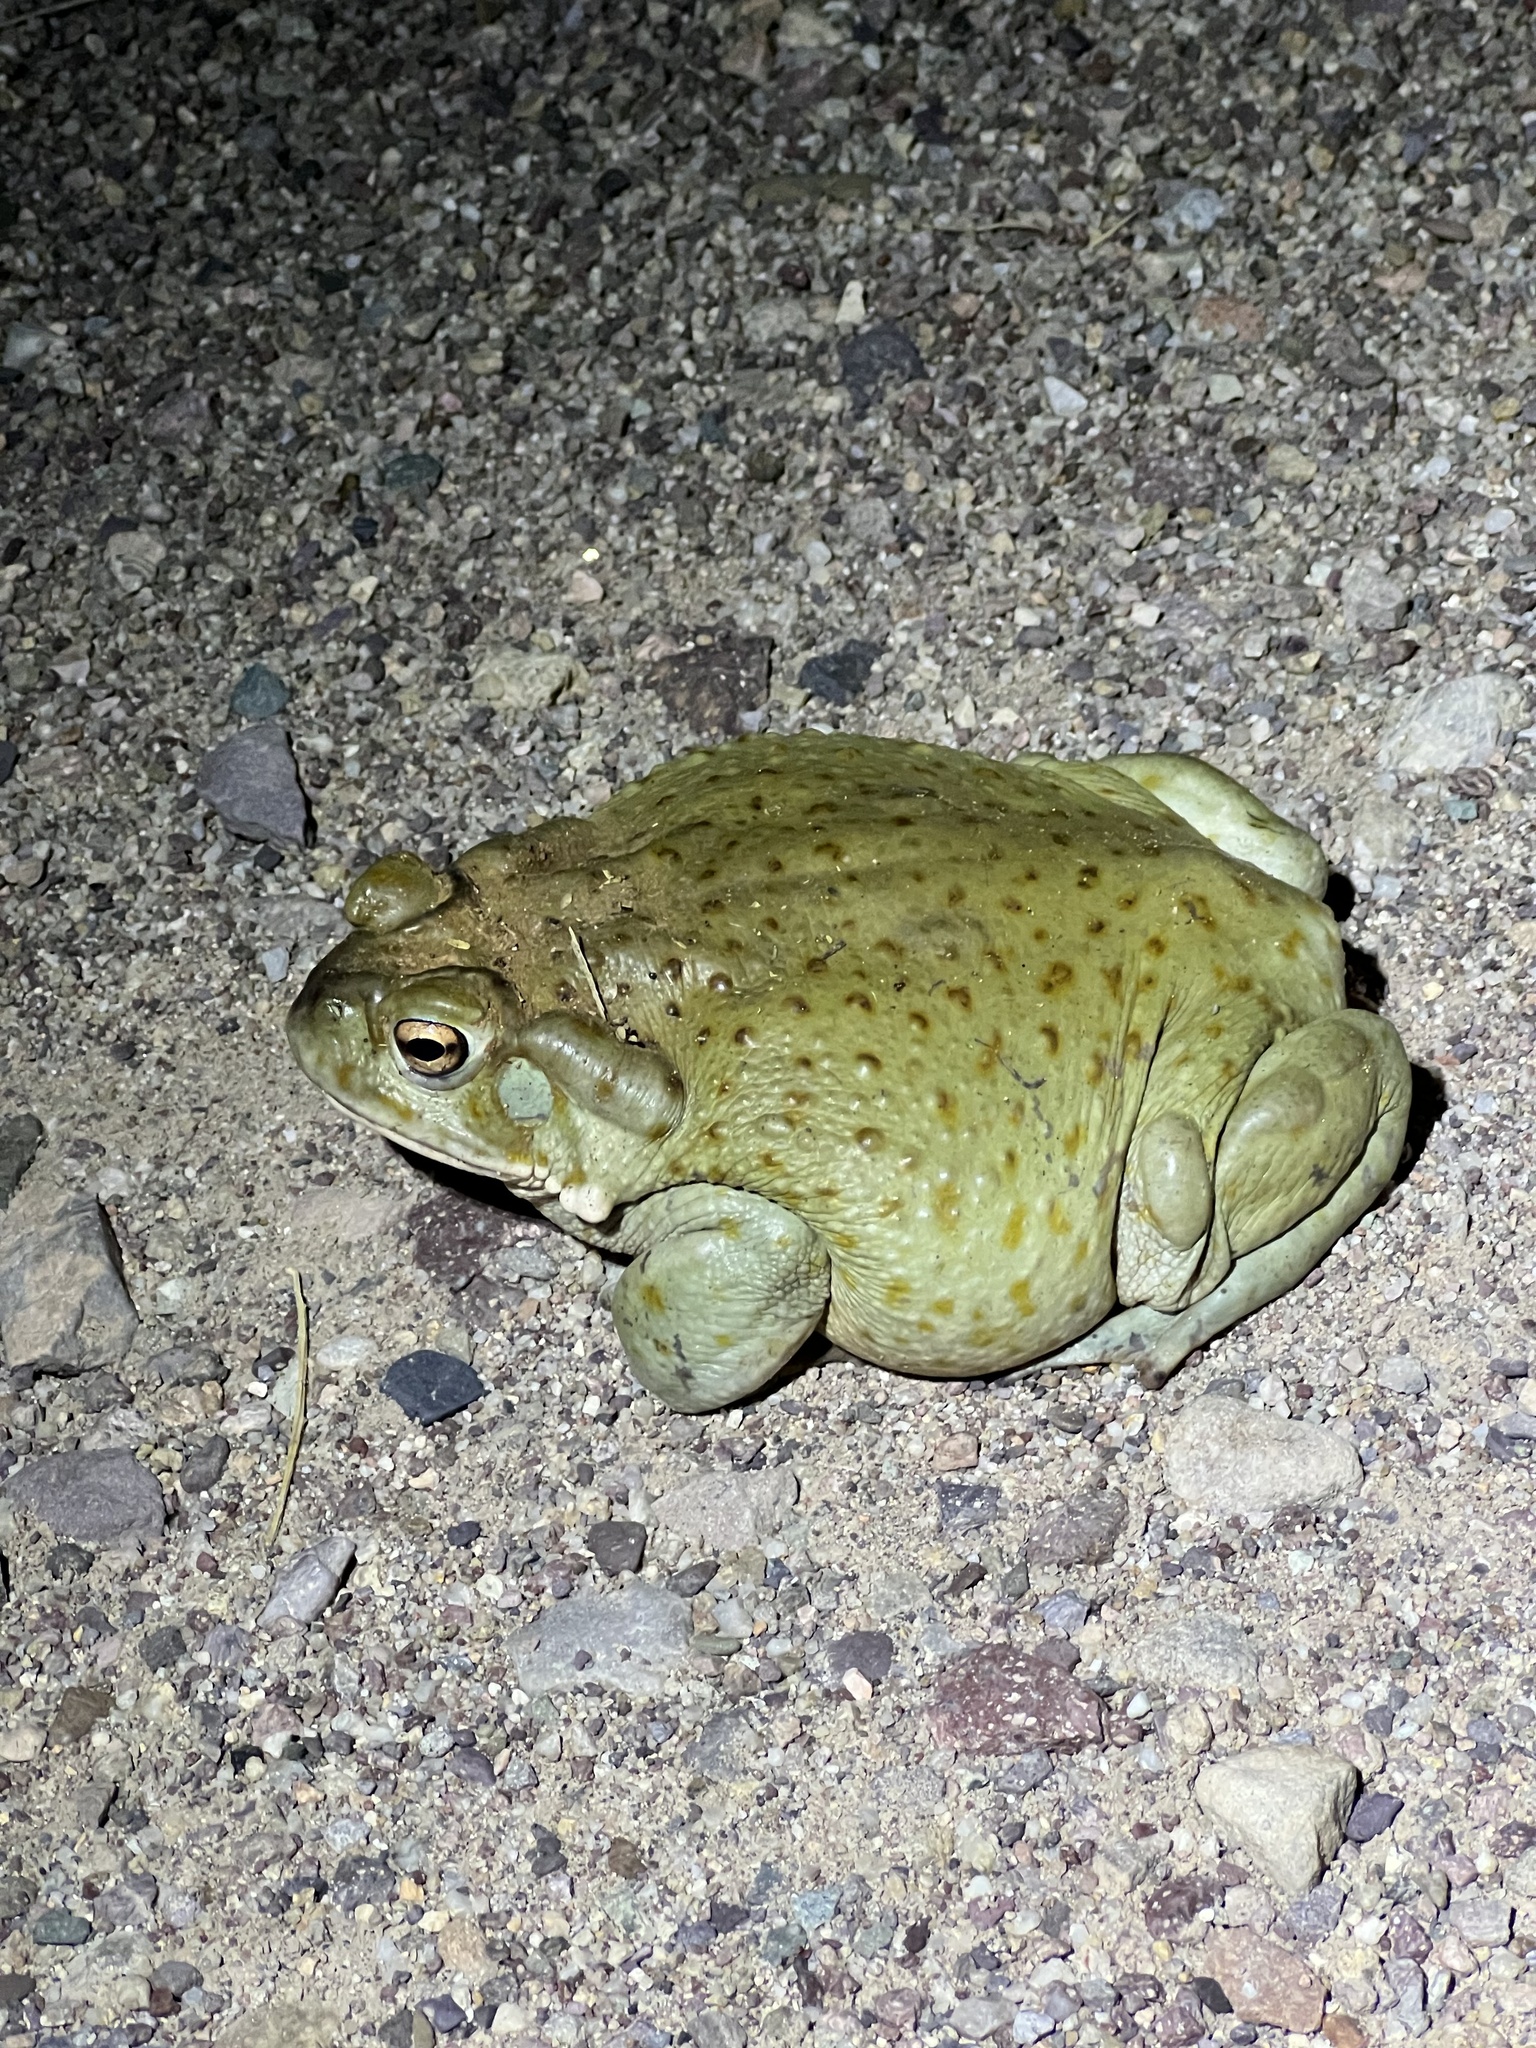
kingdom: Animalia
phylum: Chordata
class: Amphibia
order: Anura
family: Bufonidae
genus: Incilius
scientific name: Incilius alvarius
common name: Sonoran desert toad
